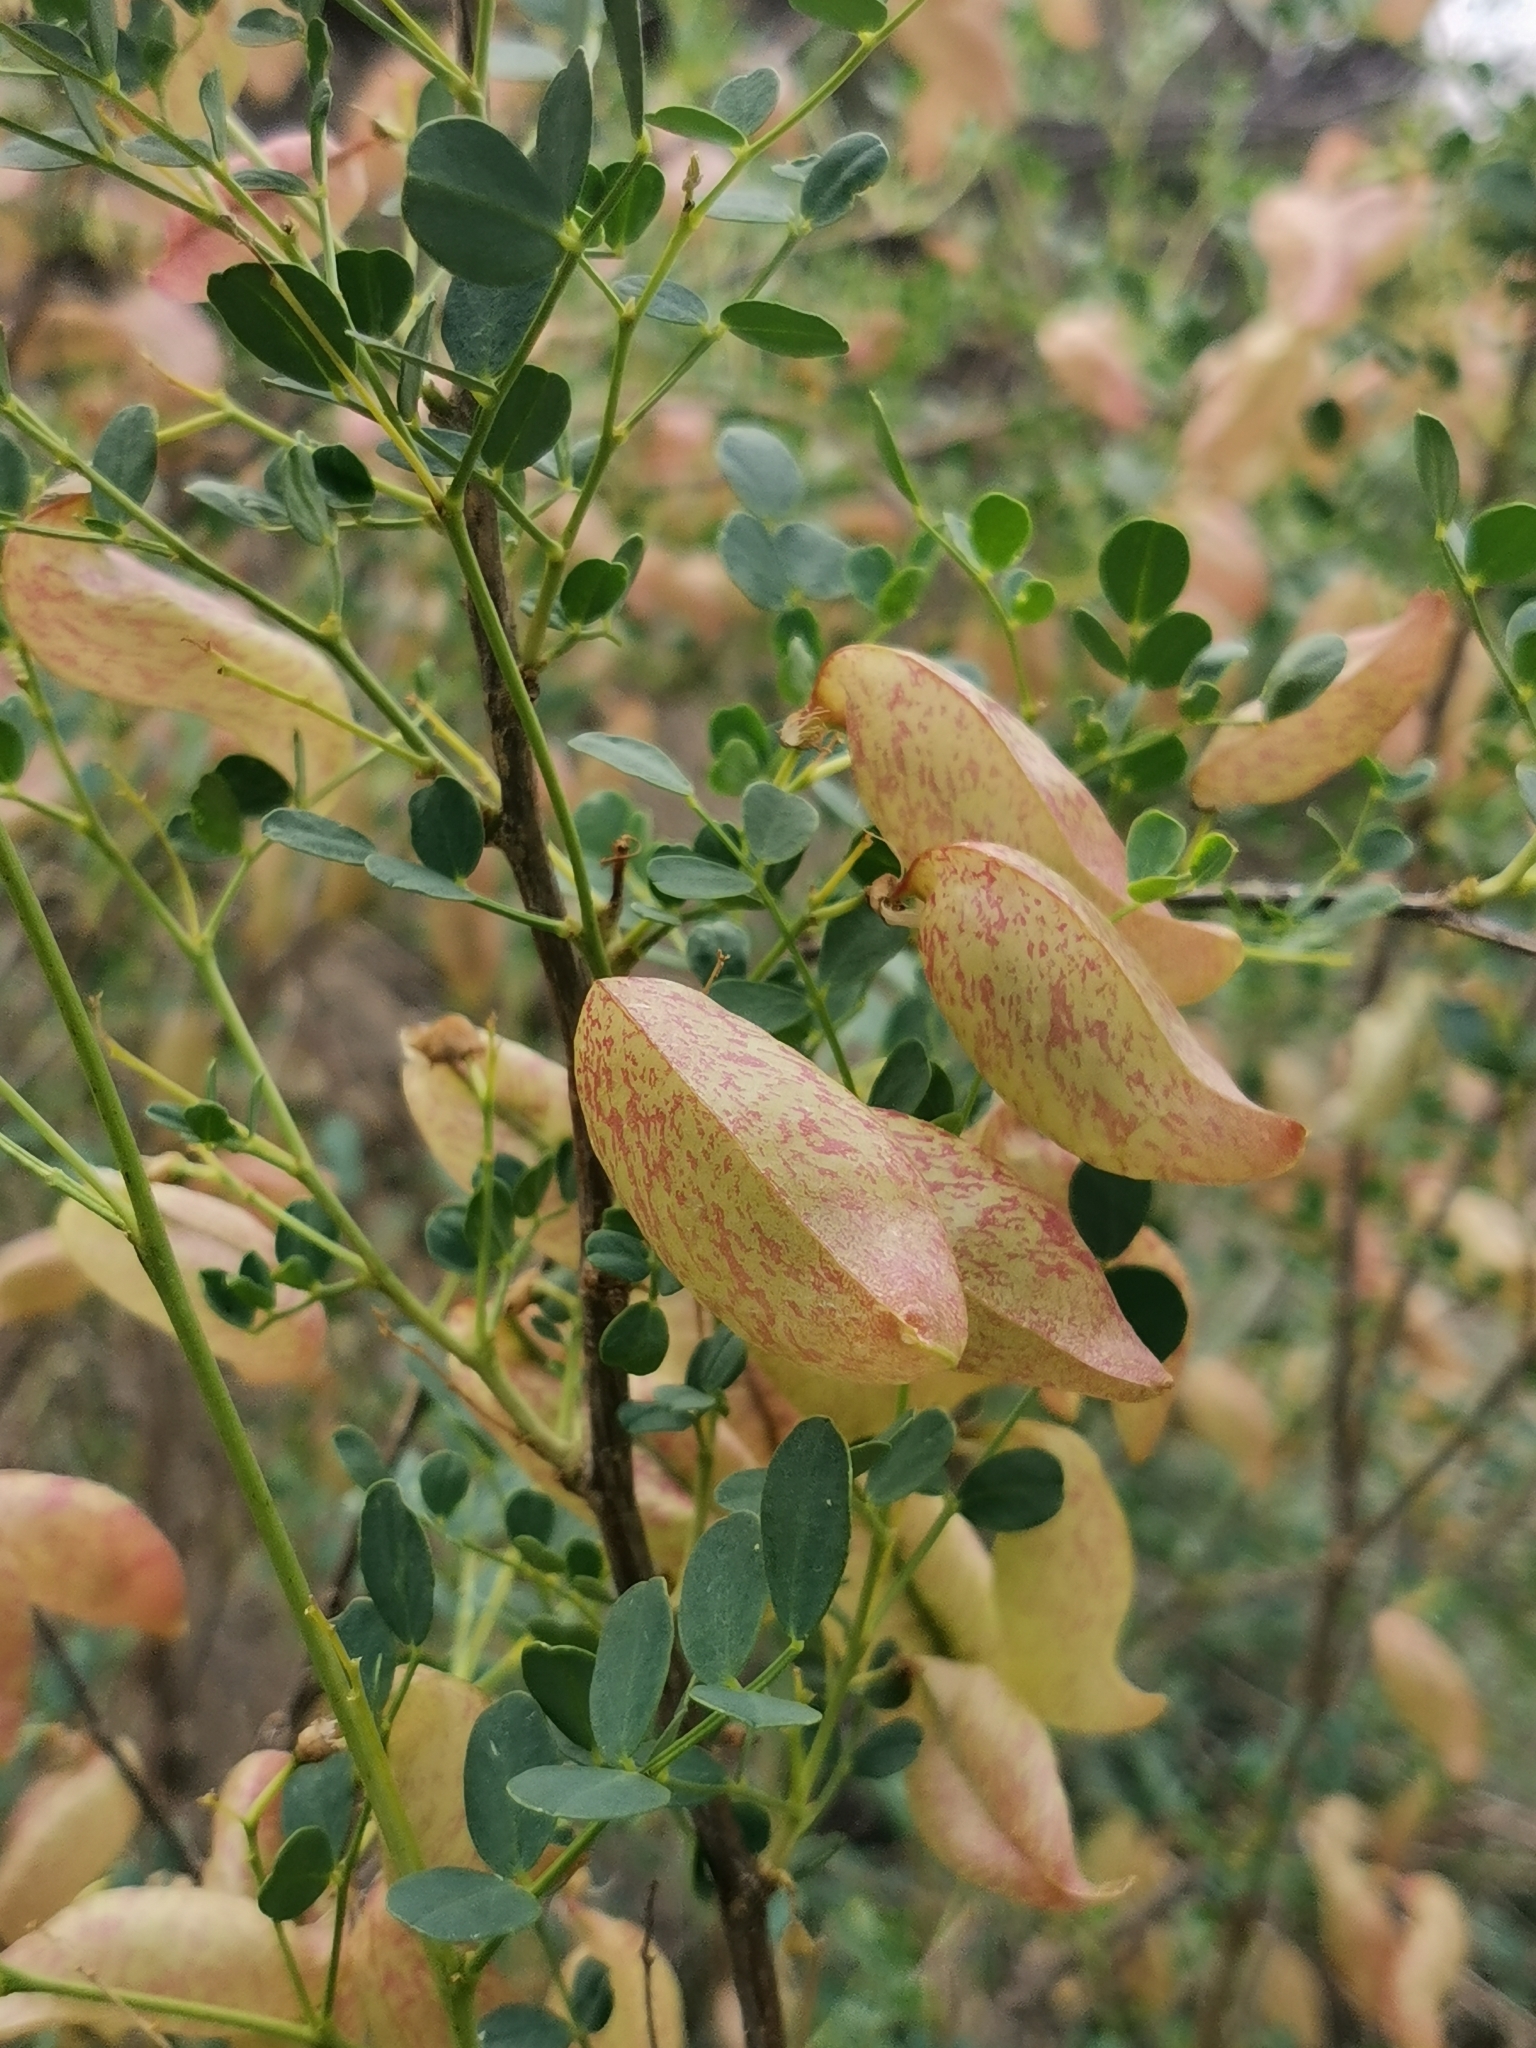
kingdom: Plantae
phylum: Tracheophyta
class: Magnoliopsida
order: Fabales
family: Fabaceae
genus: Colutea
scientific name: Colutea orientalis
